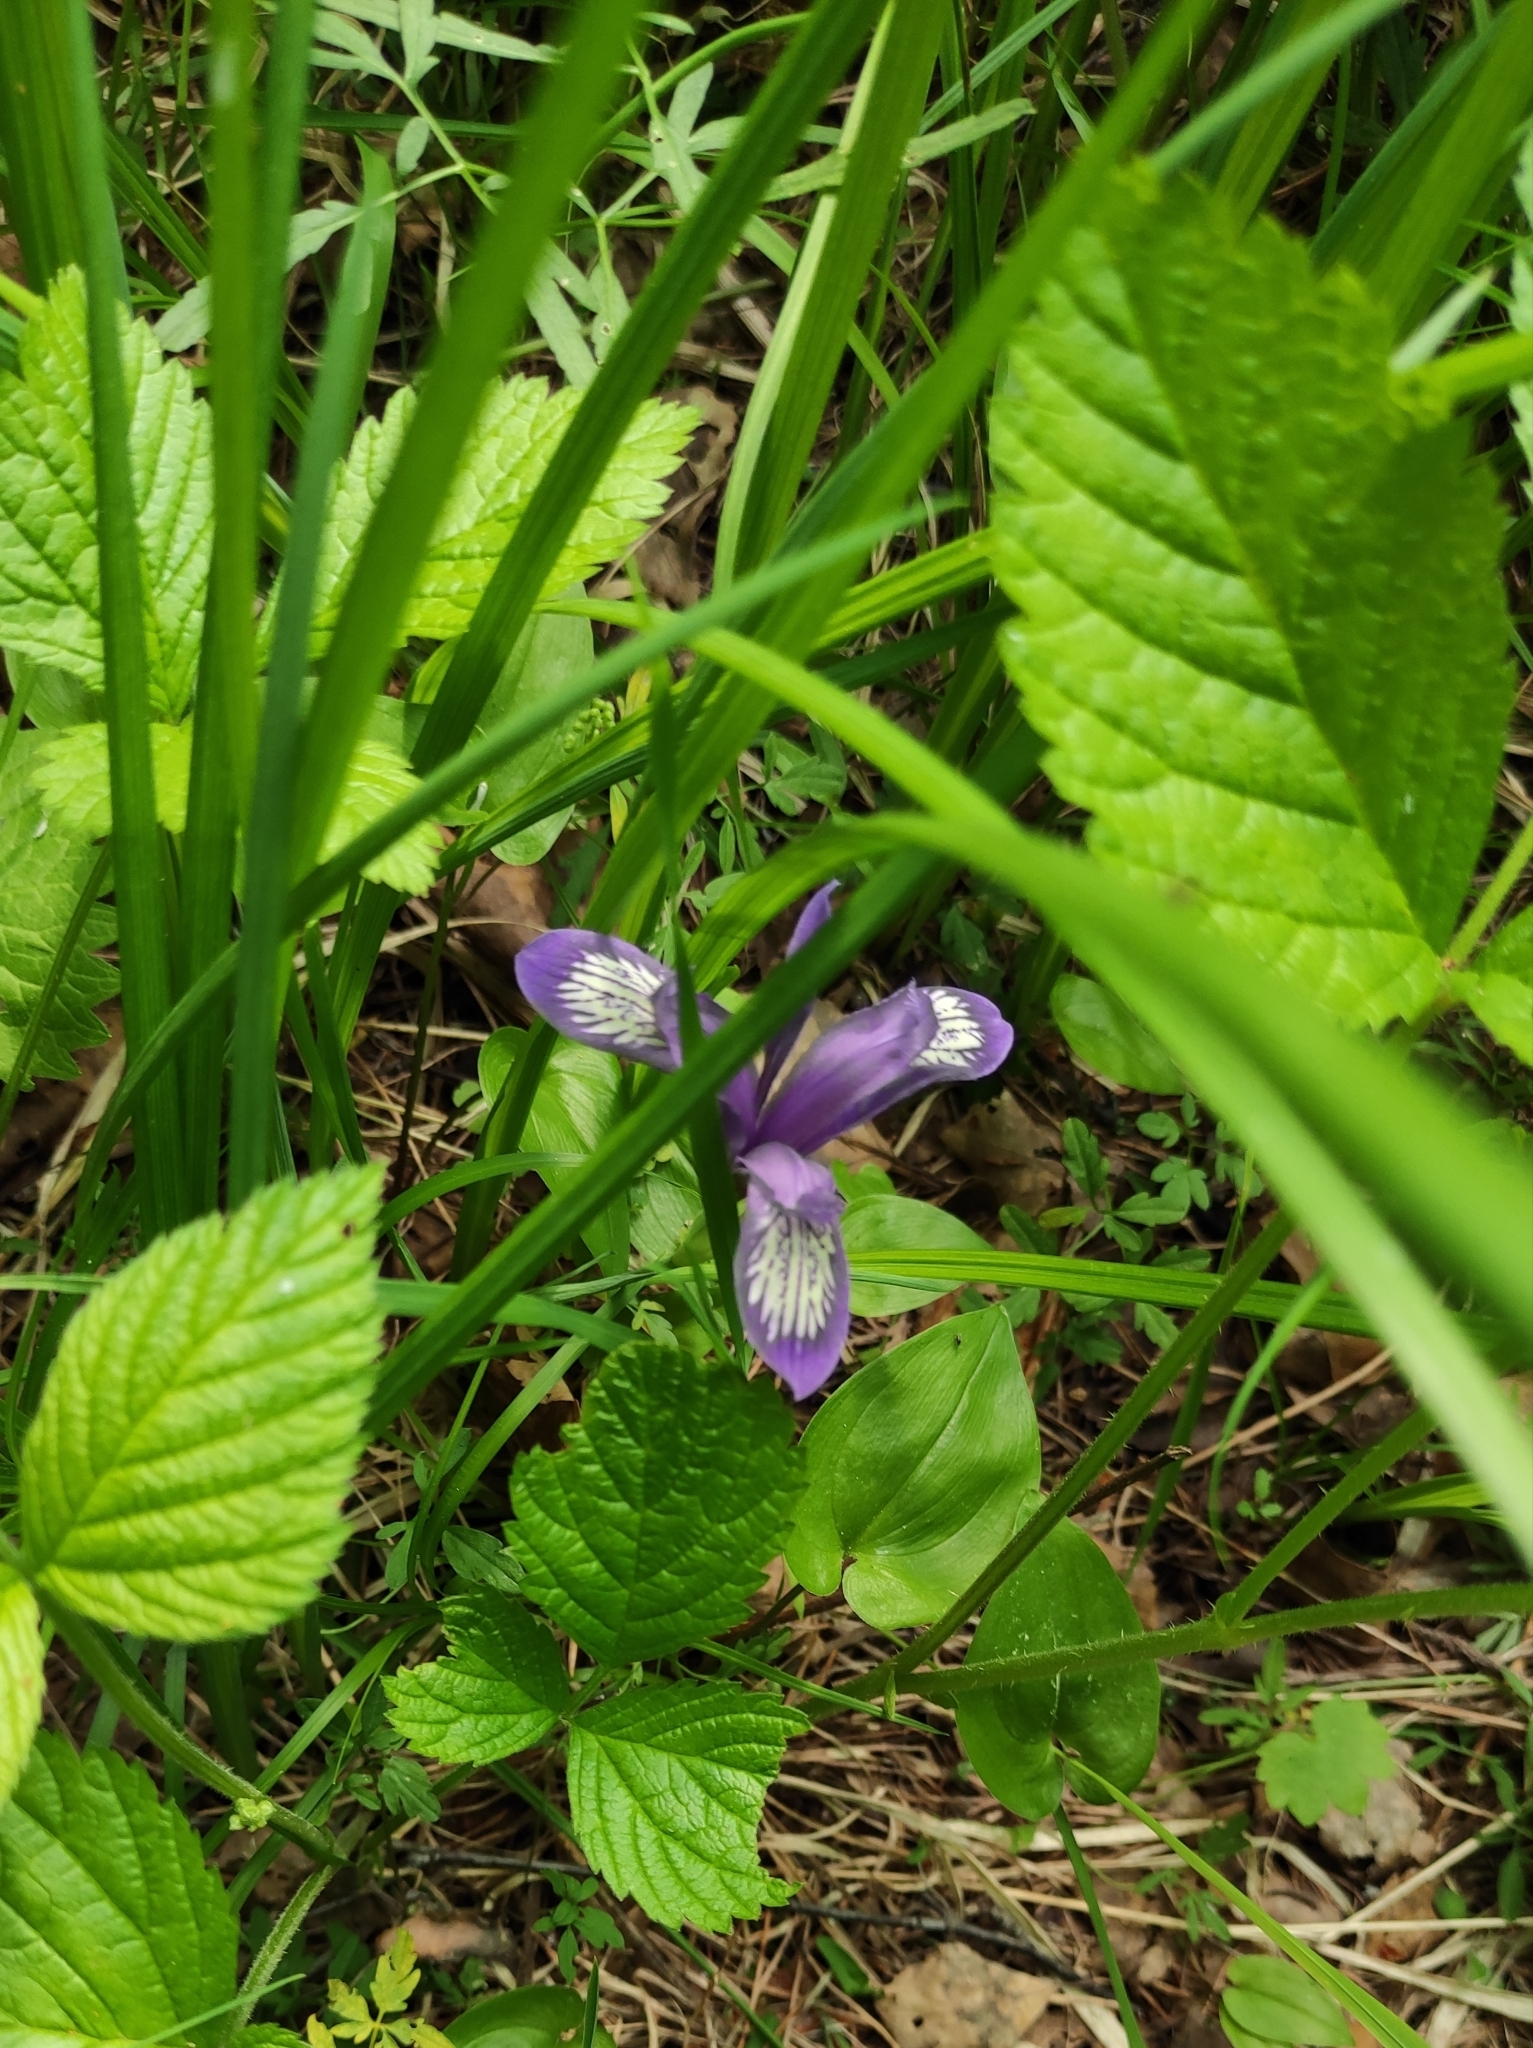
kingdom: Plantae
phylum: Tracheophyta
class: Liliopsida
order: Asparagales
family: Iridaceae
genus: Iris
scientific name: Iris ruthenica
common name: Purple-bract iris
